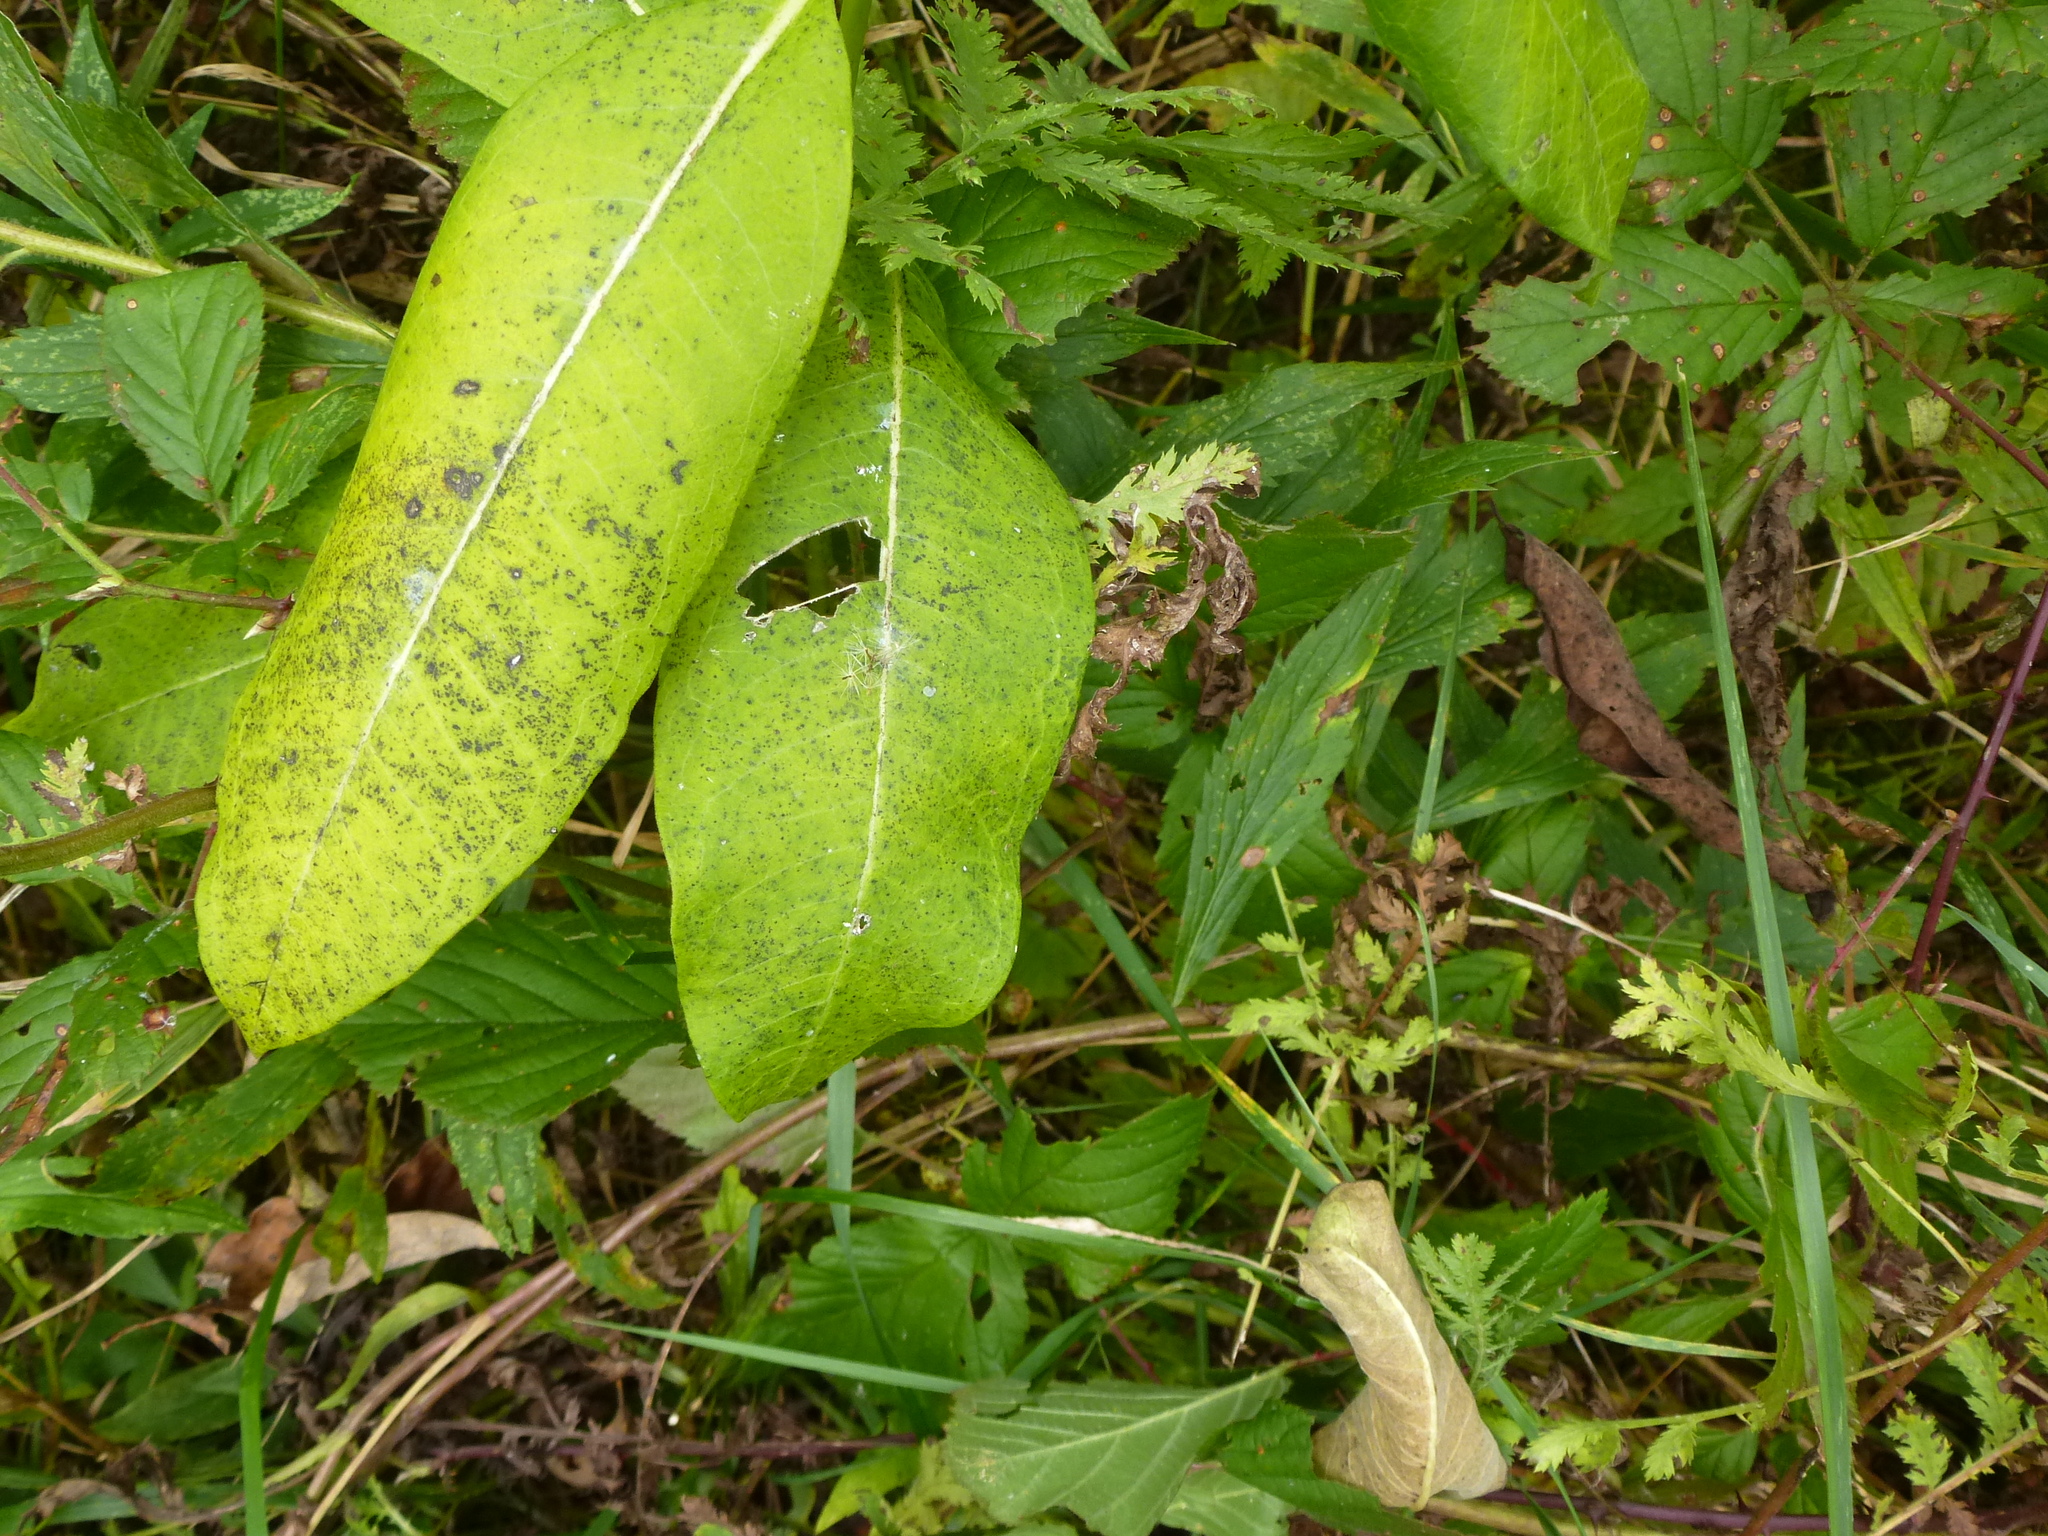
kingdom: Plantae
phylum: Tracheophyta
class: Magnoliopsida
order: Gentianales
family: Apocynaceae
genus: Asclepias
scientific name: Asclepias syriaca
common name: Common milkweed
